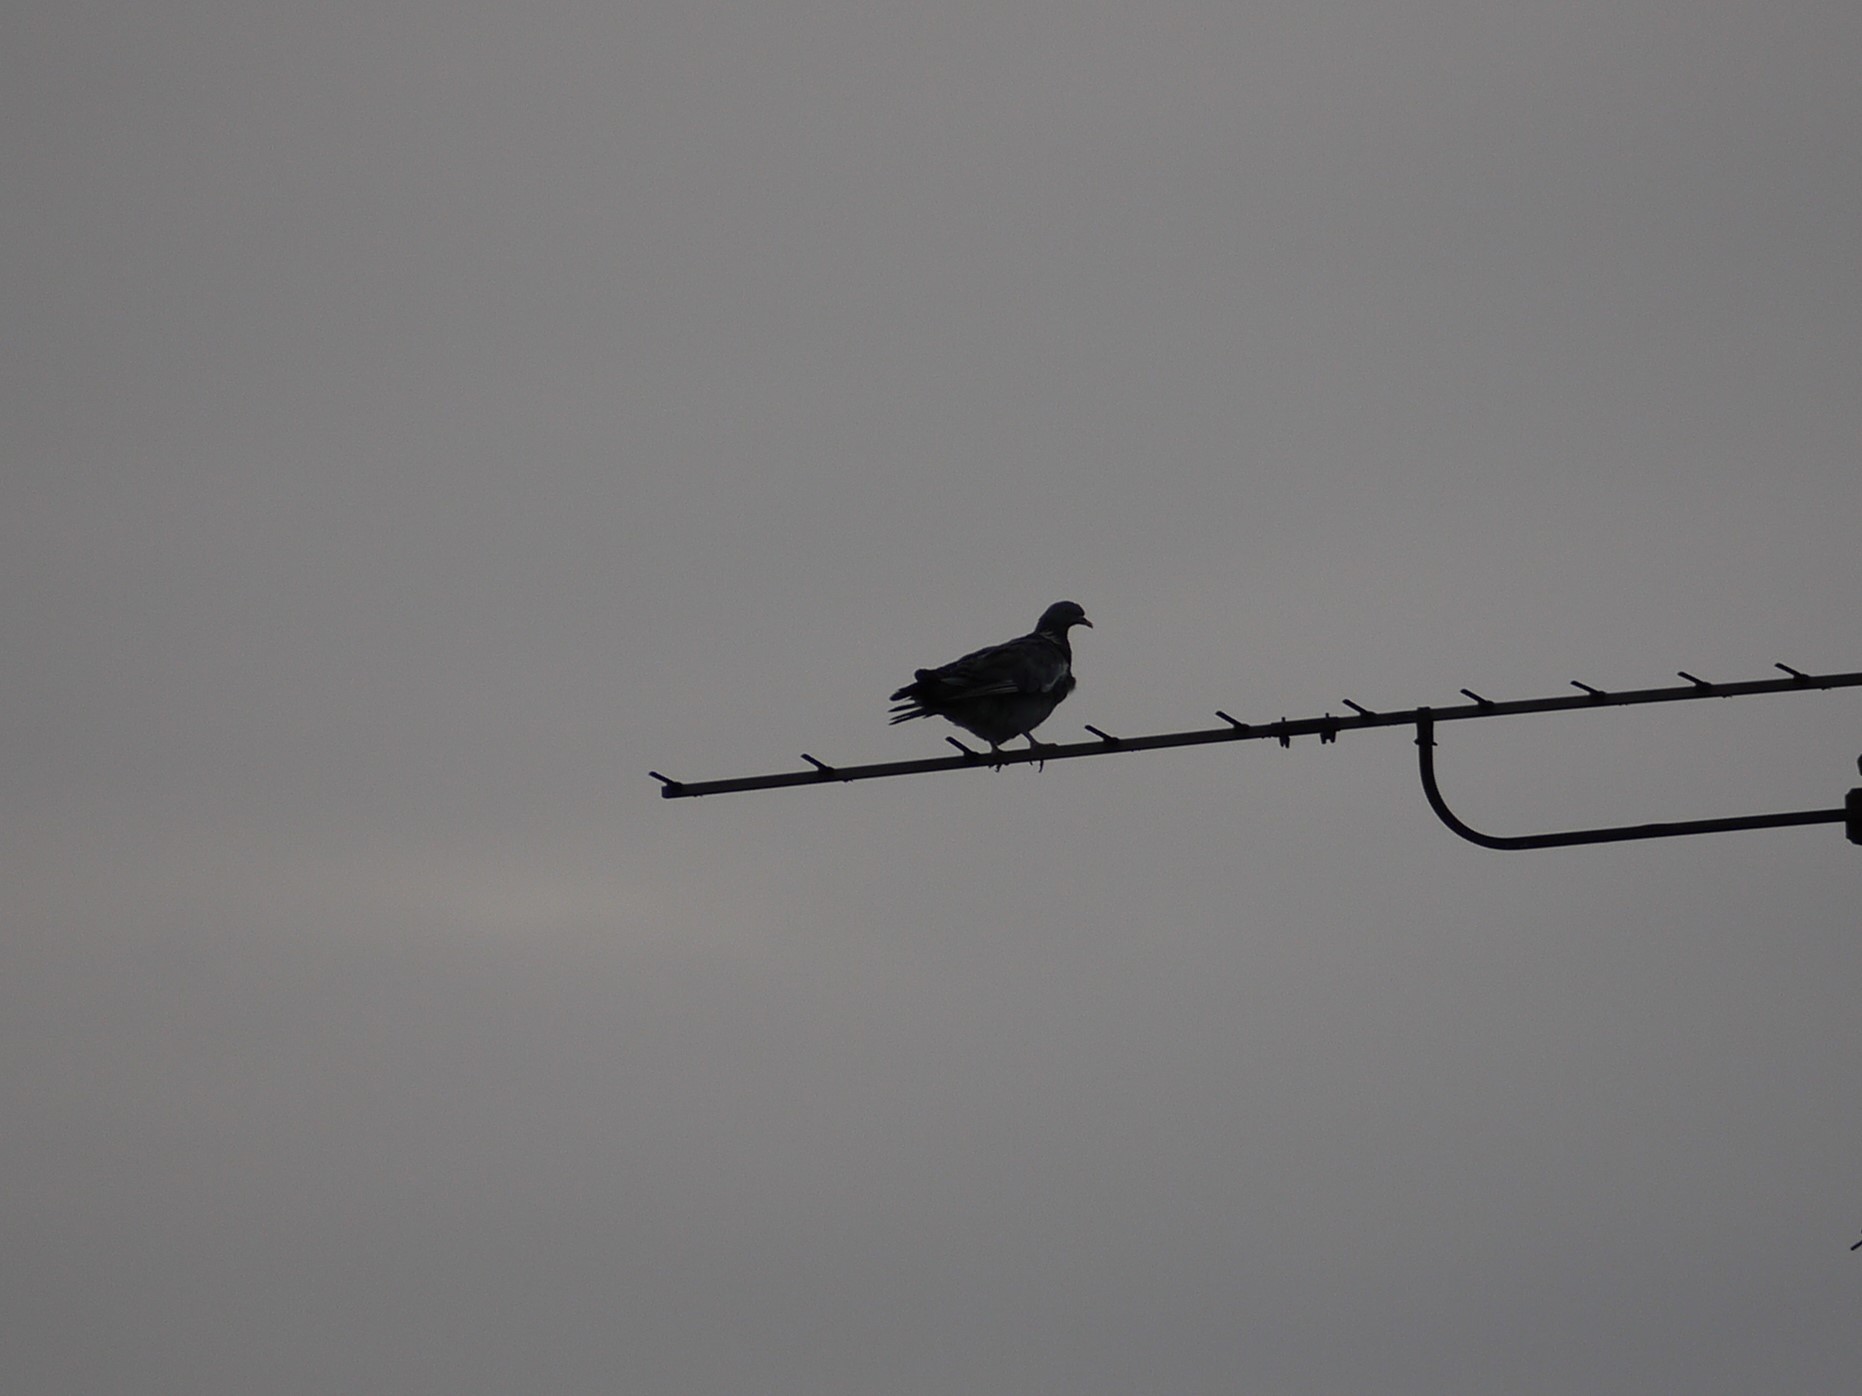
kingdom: Animalia
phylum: Chordata
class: Aves
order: Columbiformes
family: Columbidae
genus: Columba
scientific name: Columba palumbus
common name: Common wood pigeon
